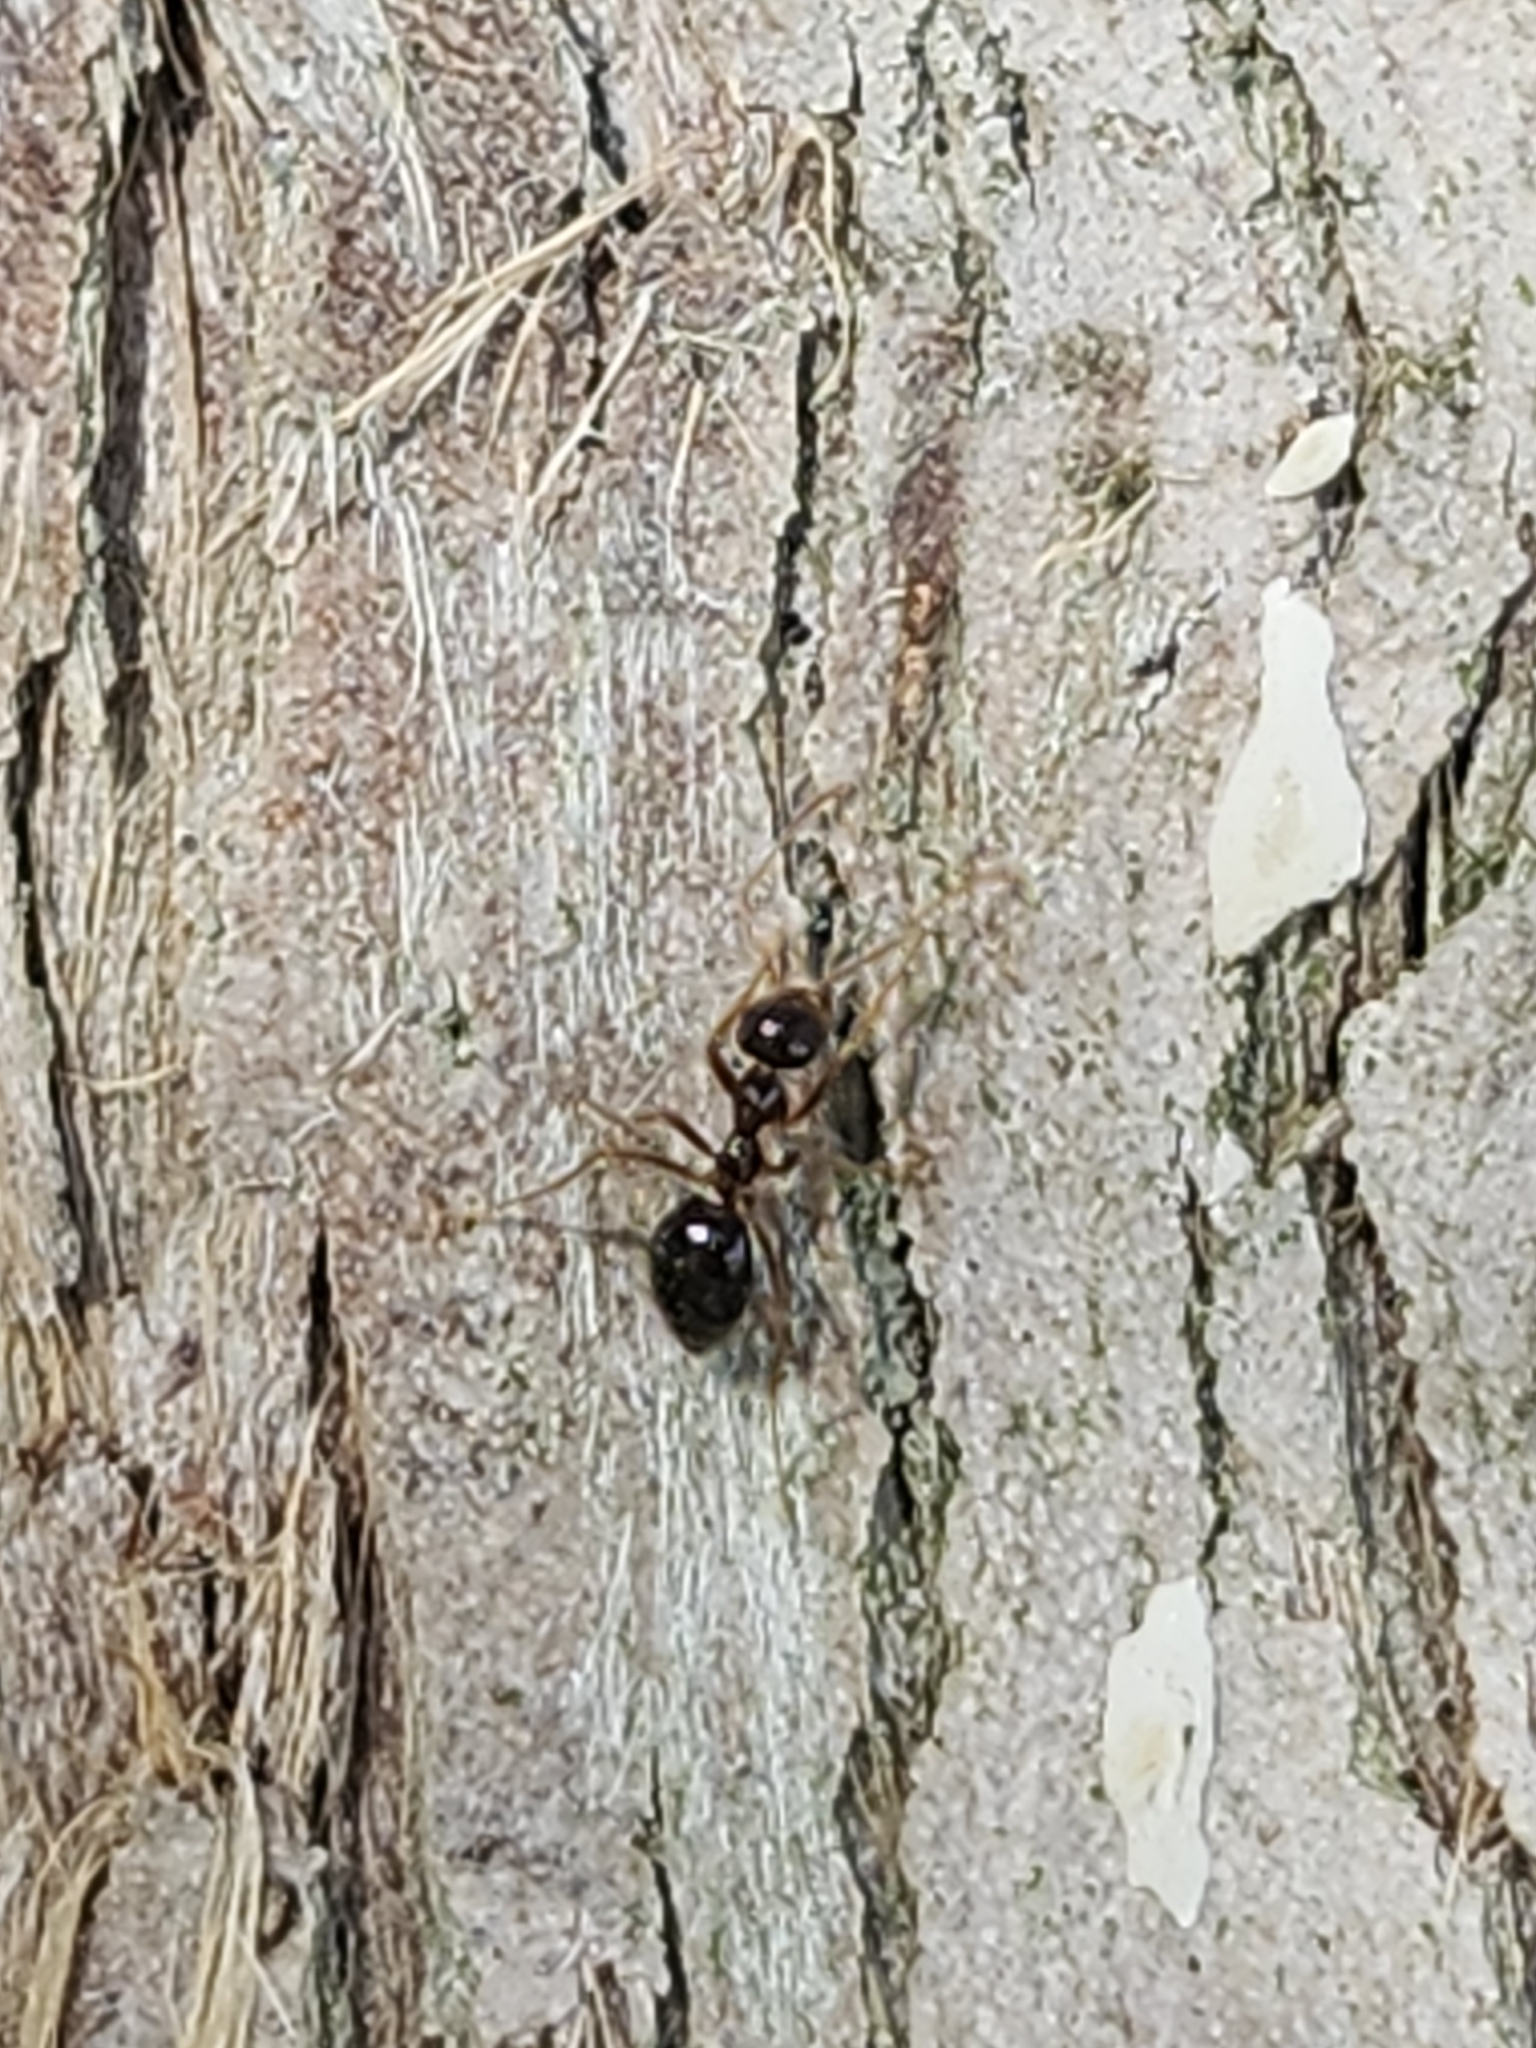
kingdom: Animalia
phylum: Arthropoda
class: Insecta
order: Hymenoptera
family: Formicidae
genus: Prenolepis
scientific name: Prenolepis imparis
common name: Small honey ant
